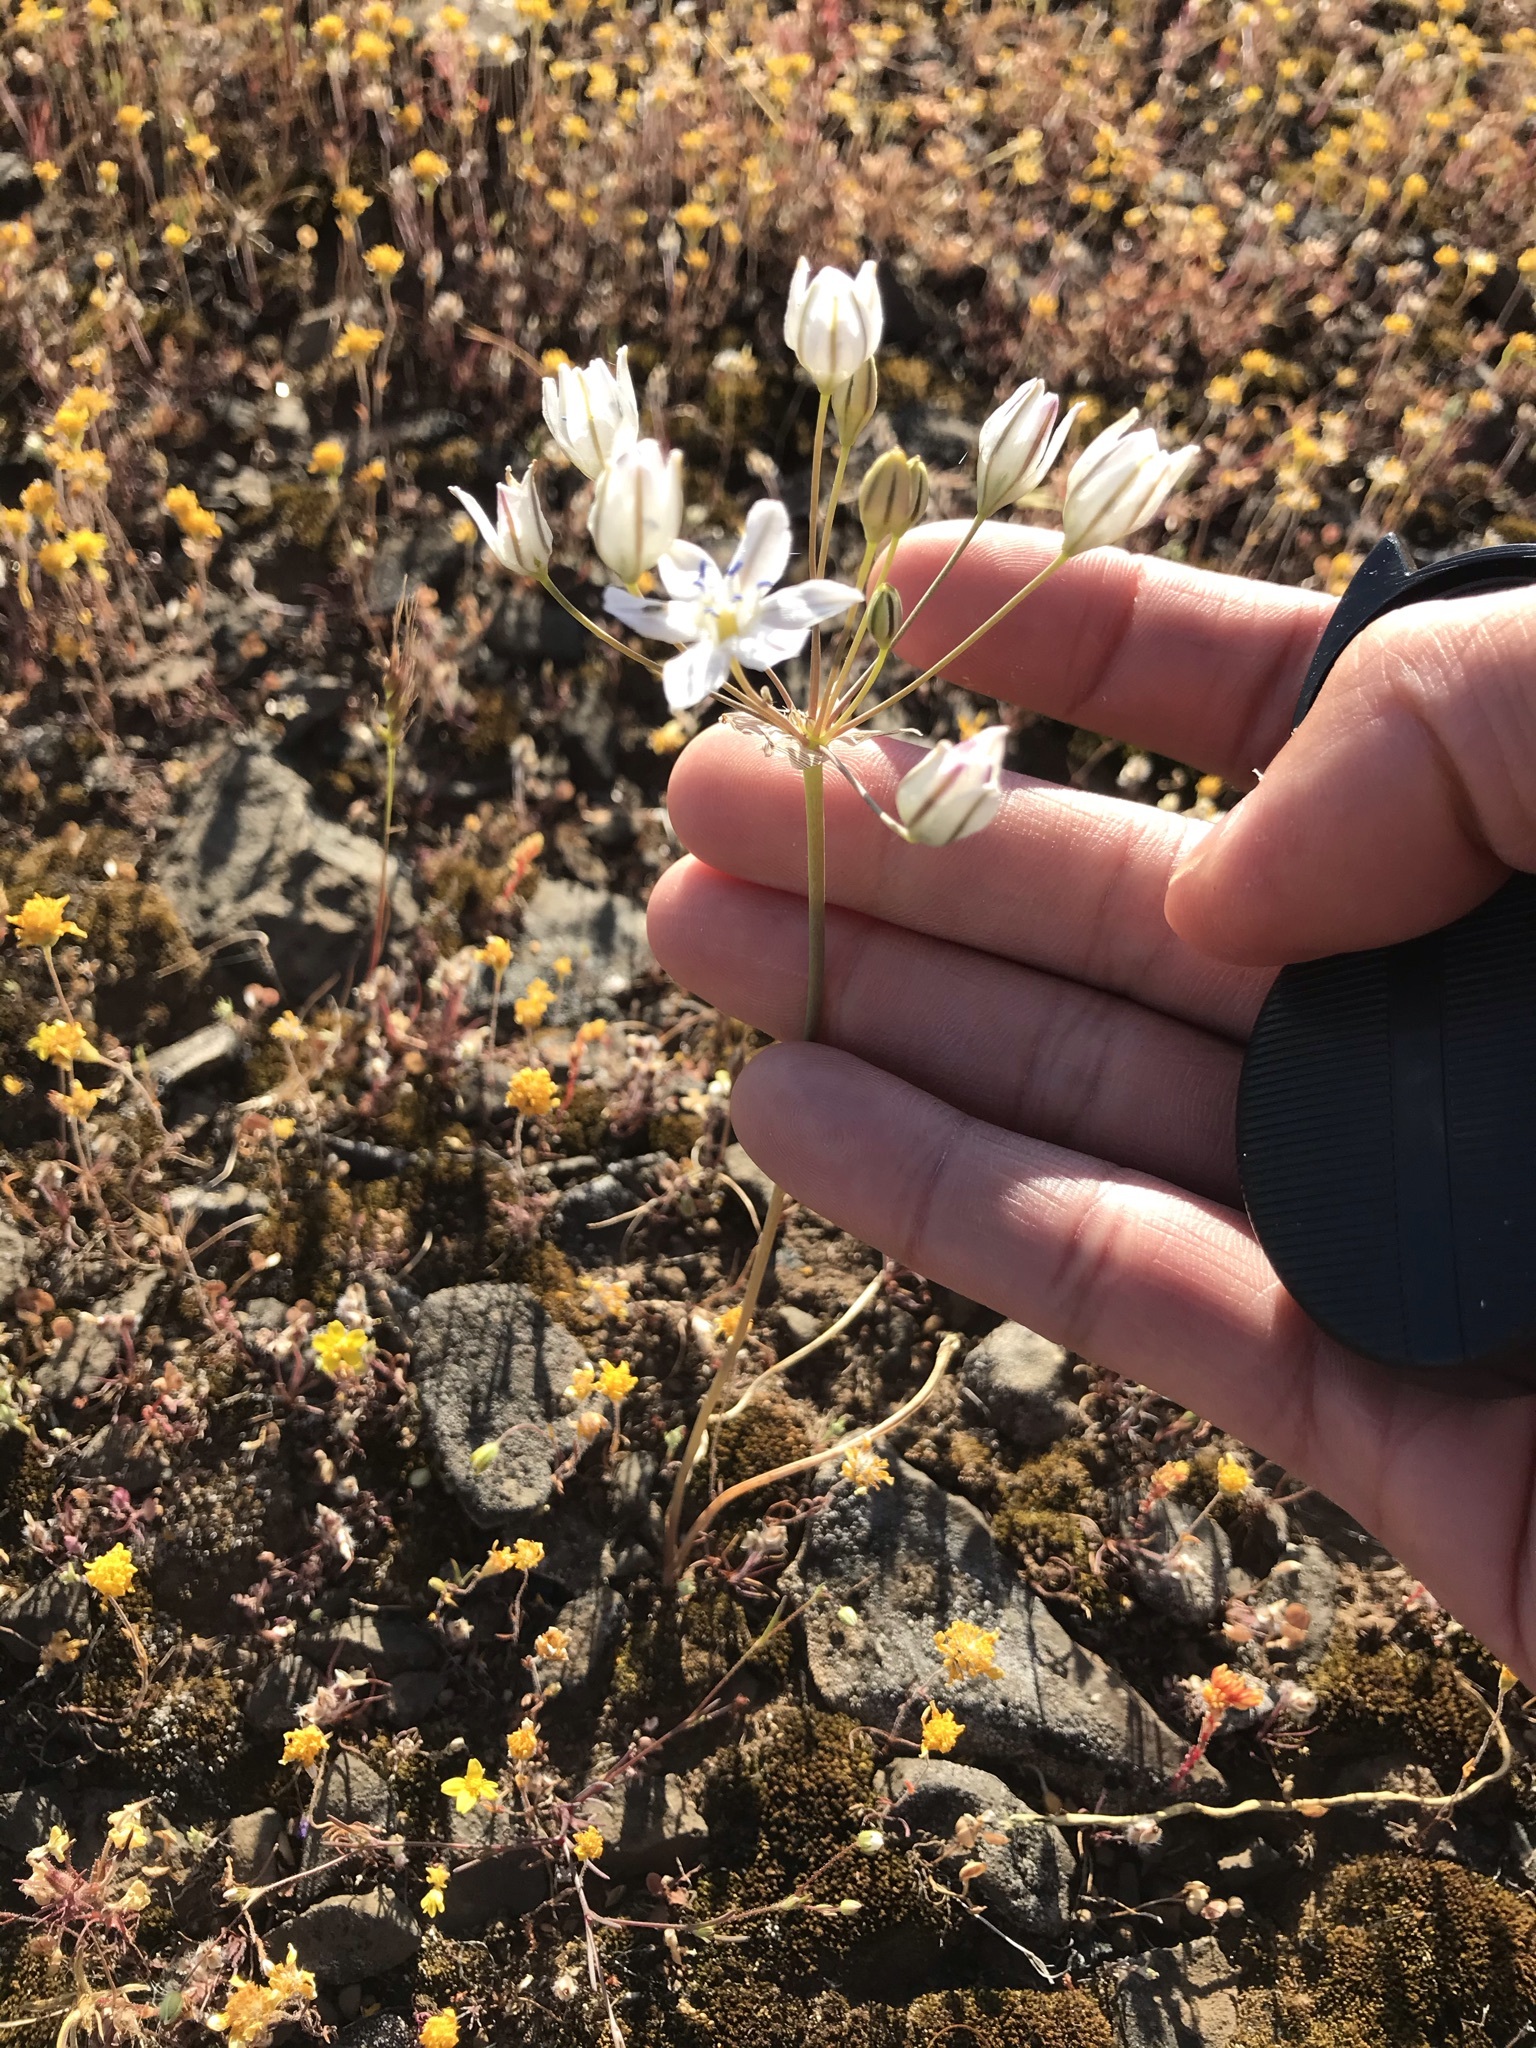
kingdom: Plantae
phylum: Tracheophyta
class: Liliopsida
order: Asparagales
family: Asparagaceae
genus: Triteleia
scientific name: Triteleia lilacina
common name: Lilac-flower wild hyacinth
